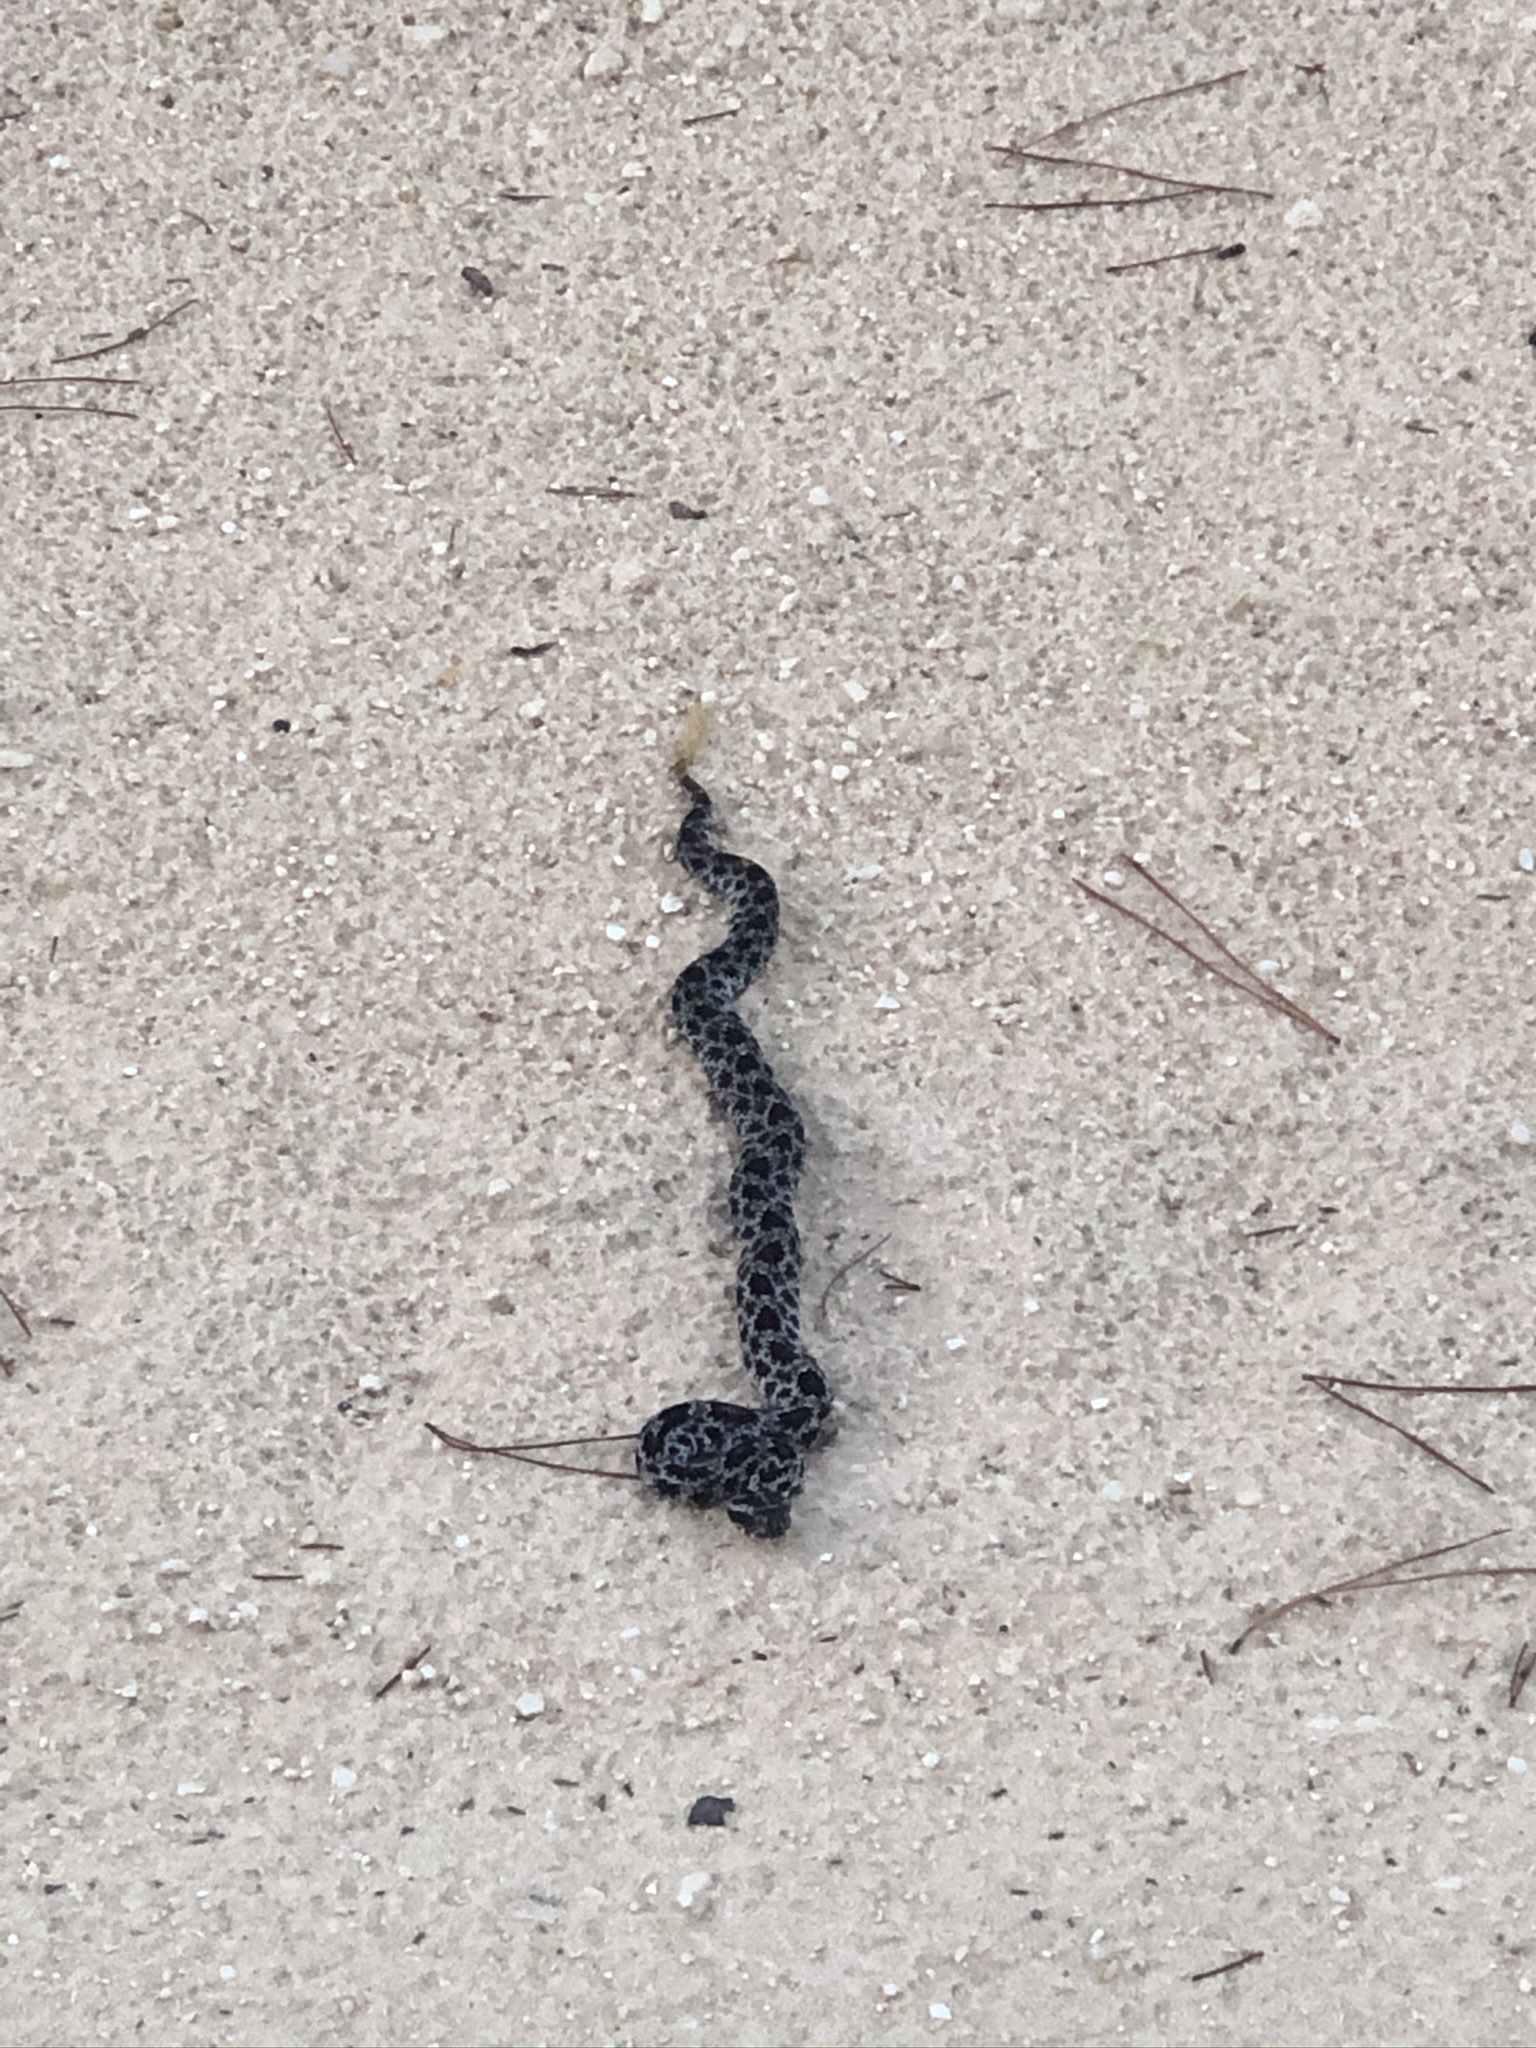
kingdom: Animalia
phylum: Chordata
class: Squamata
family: Viperidae
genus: Sistrurus
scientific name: Sistrurus miliarius
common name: Pygmy rattlesnake
